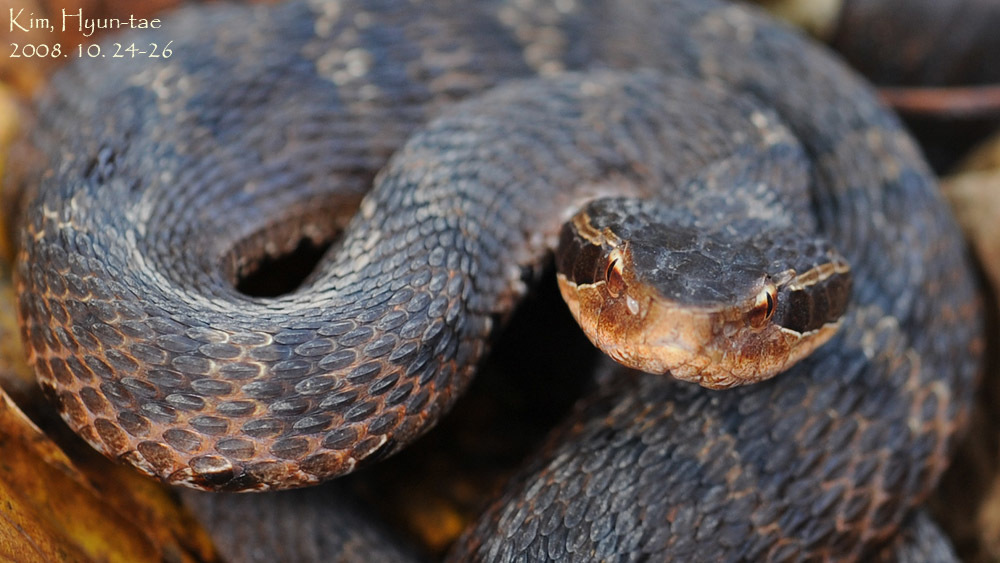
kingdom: Animalia
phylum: Chordata
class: Squamata
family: Viperidae
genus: Gloydius
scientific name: Gloydius ussuriensis
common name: Ussuri mamushi
